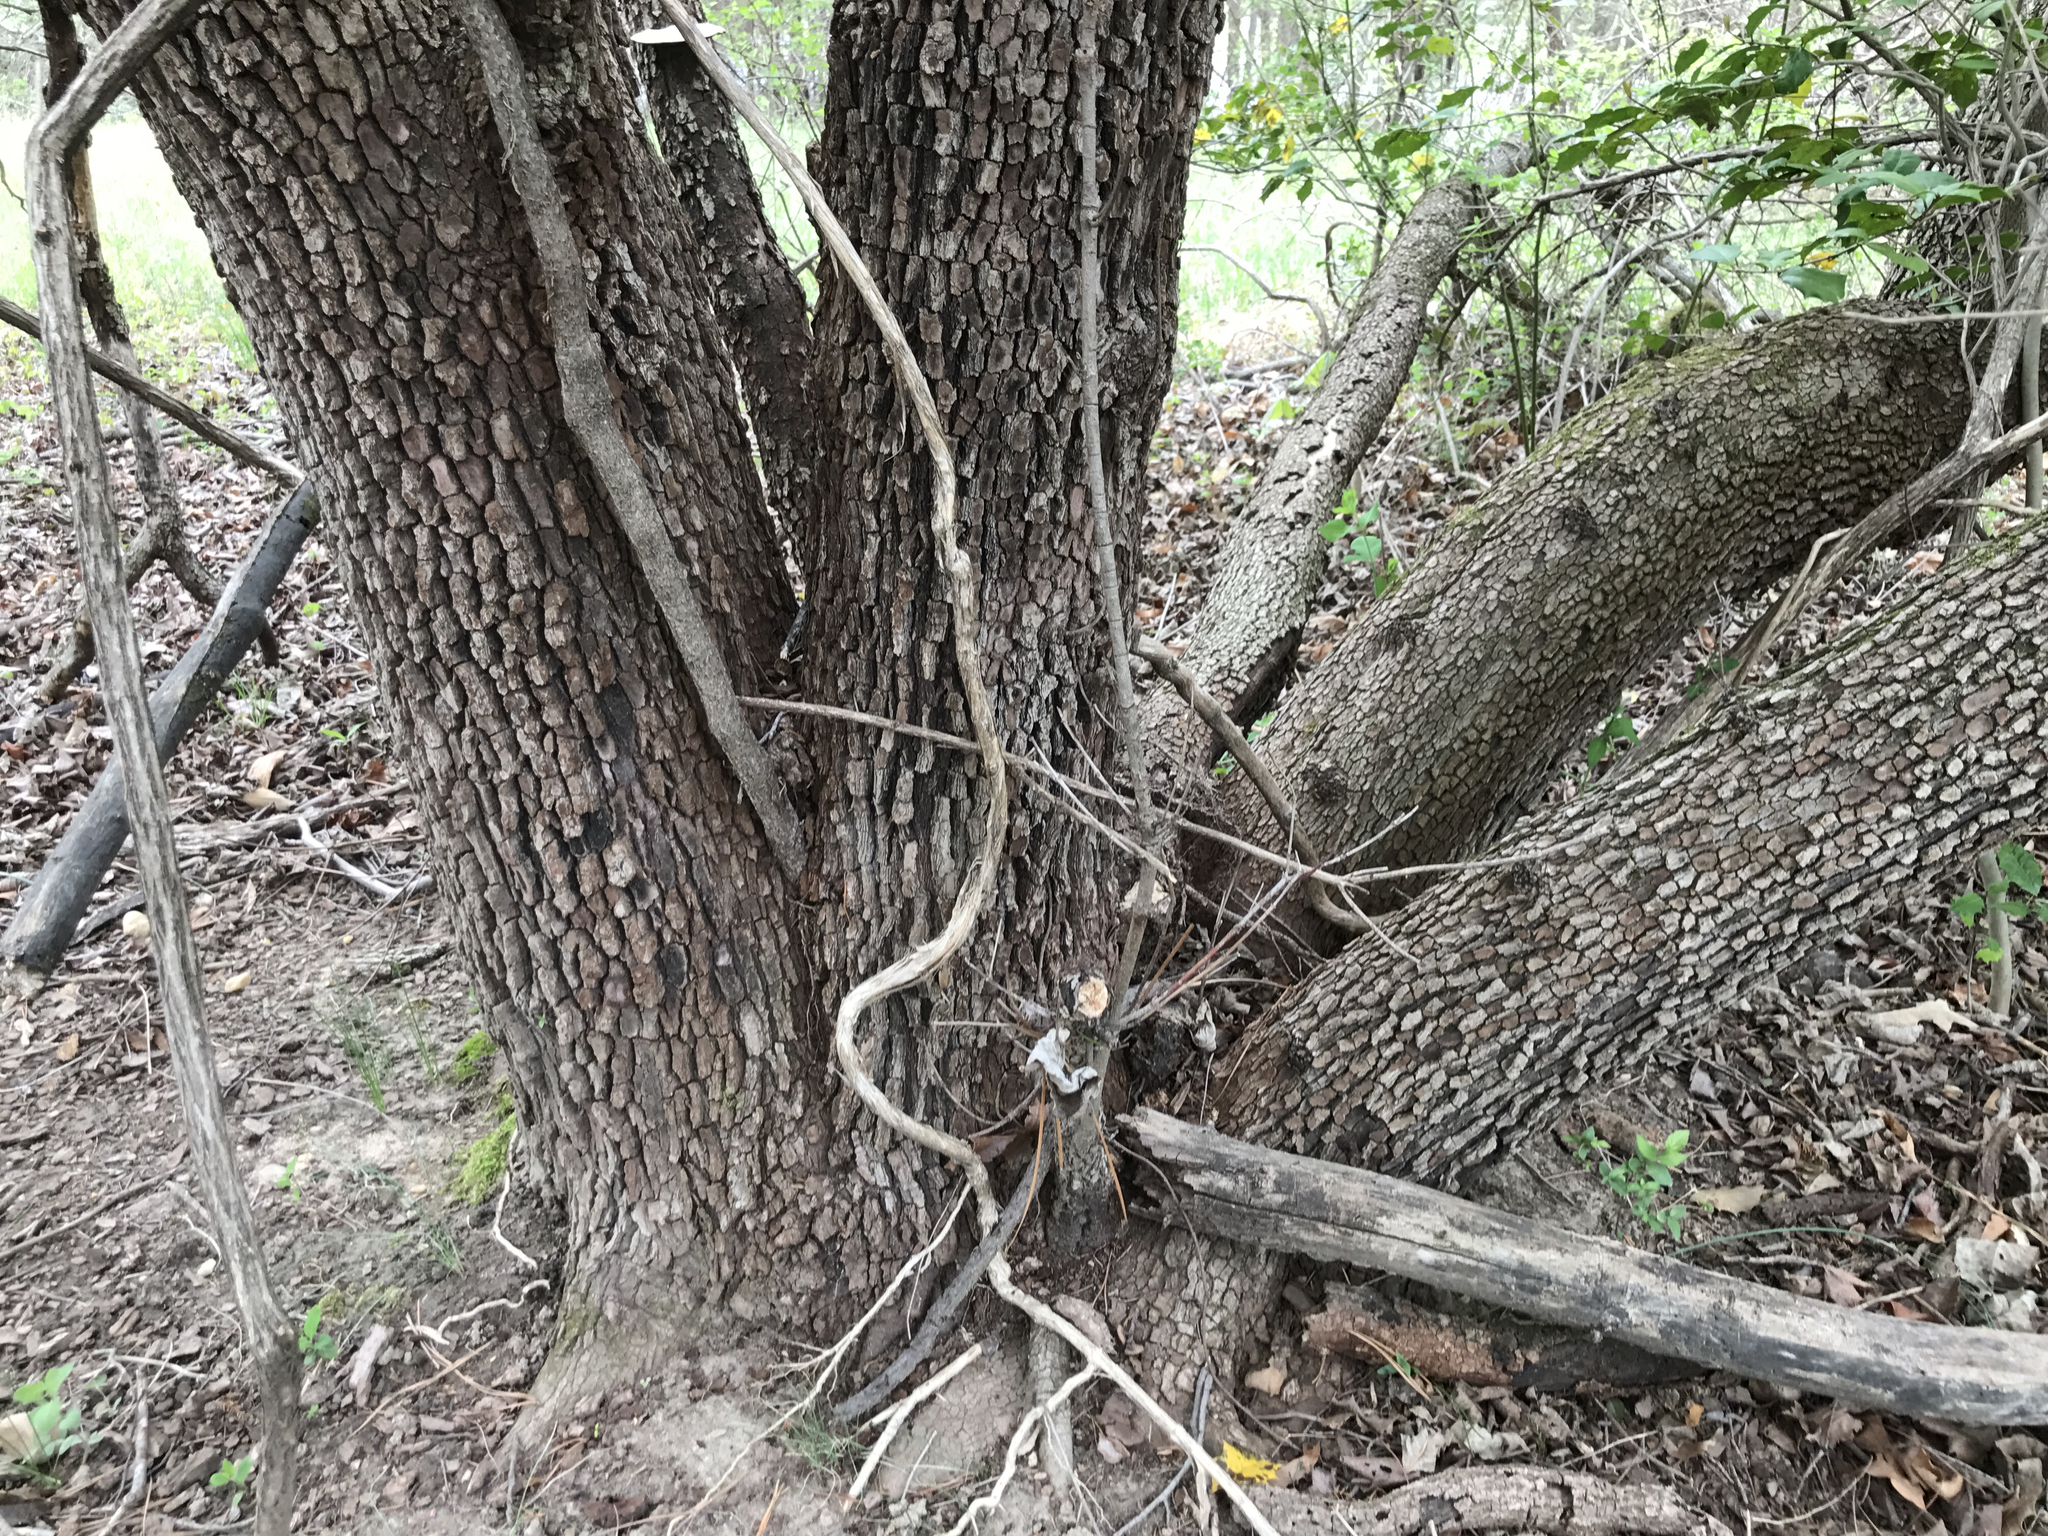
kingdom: Plantae
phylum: Tracheophyta
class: Magnoliopsida
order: Cornales
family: Cornaceae
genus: Cornus
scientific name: Cornus florida
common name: Flowering dogwood
